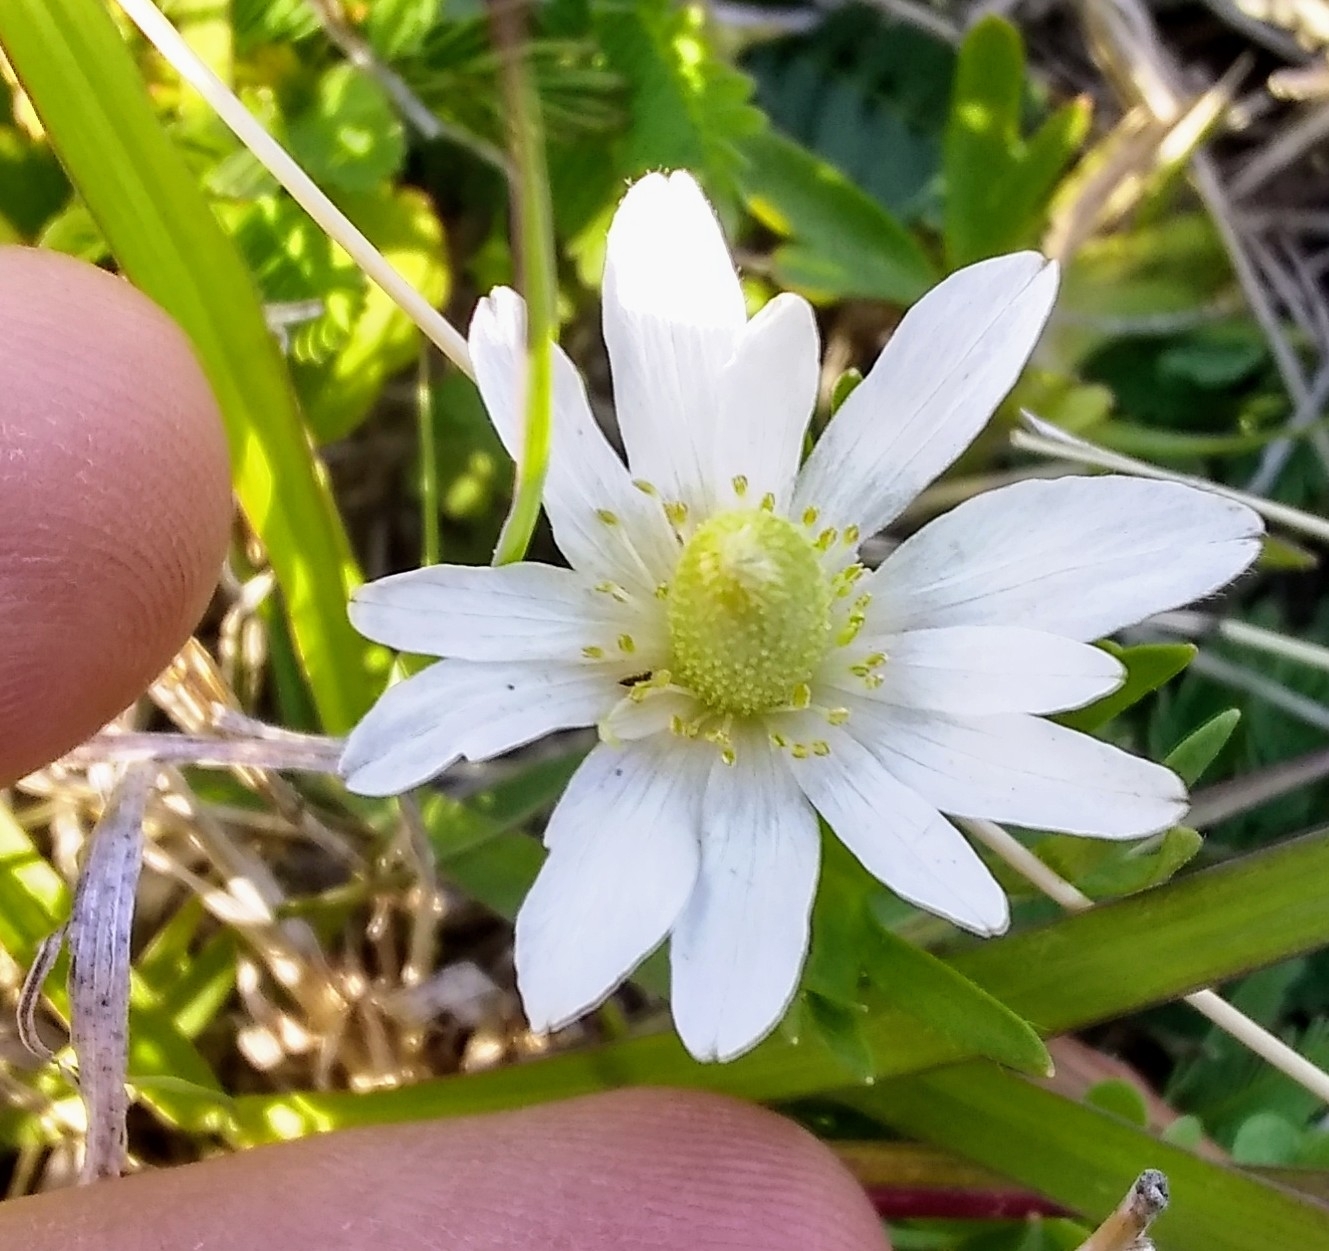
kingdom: Plantae
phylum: Tracheophyta
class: Magnoliopsida
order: Ranunculales
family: Ranunculaceae
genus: Anemone
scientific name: Anemone berlandieri
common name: Ten-petal anemone
